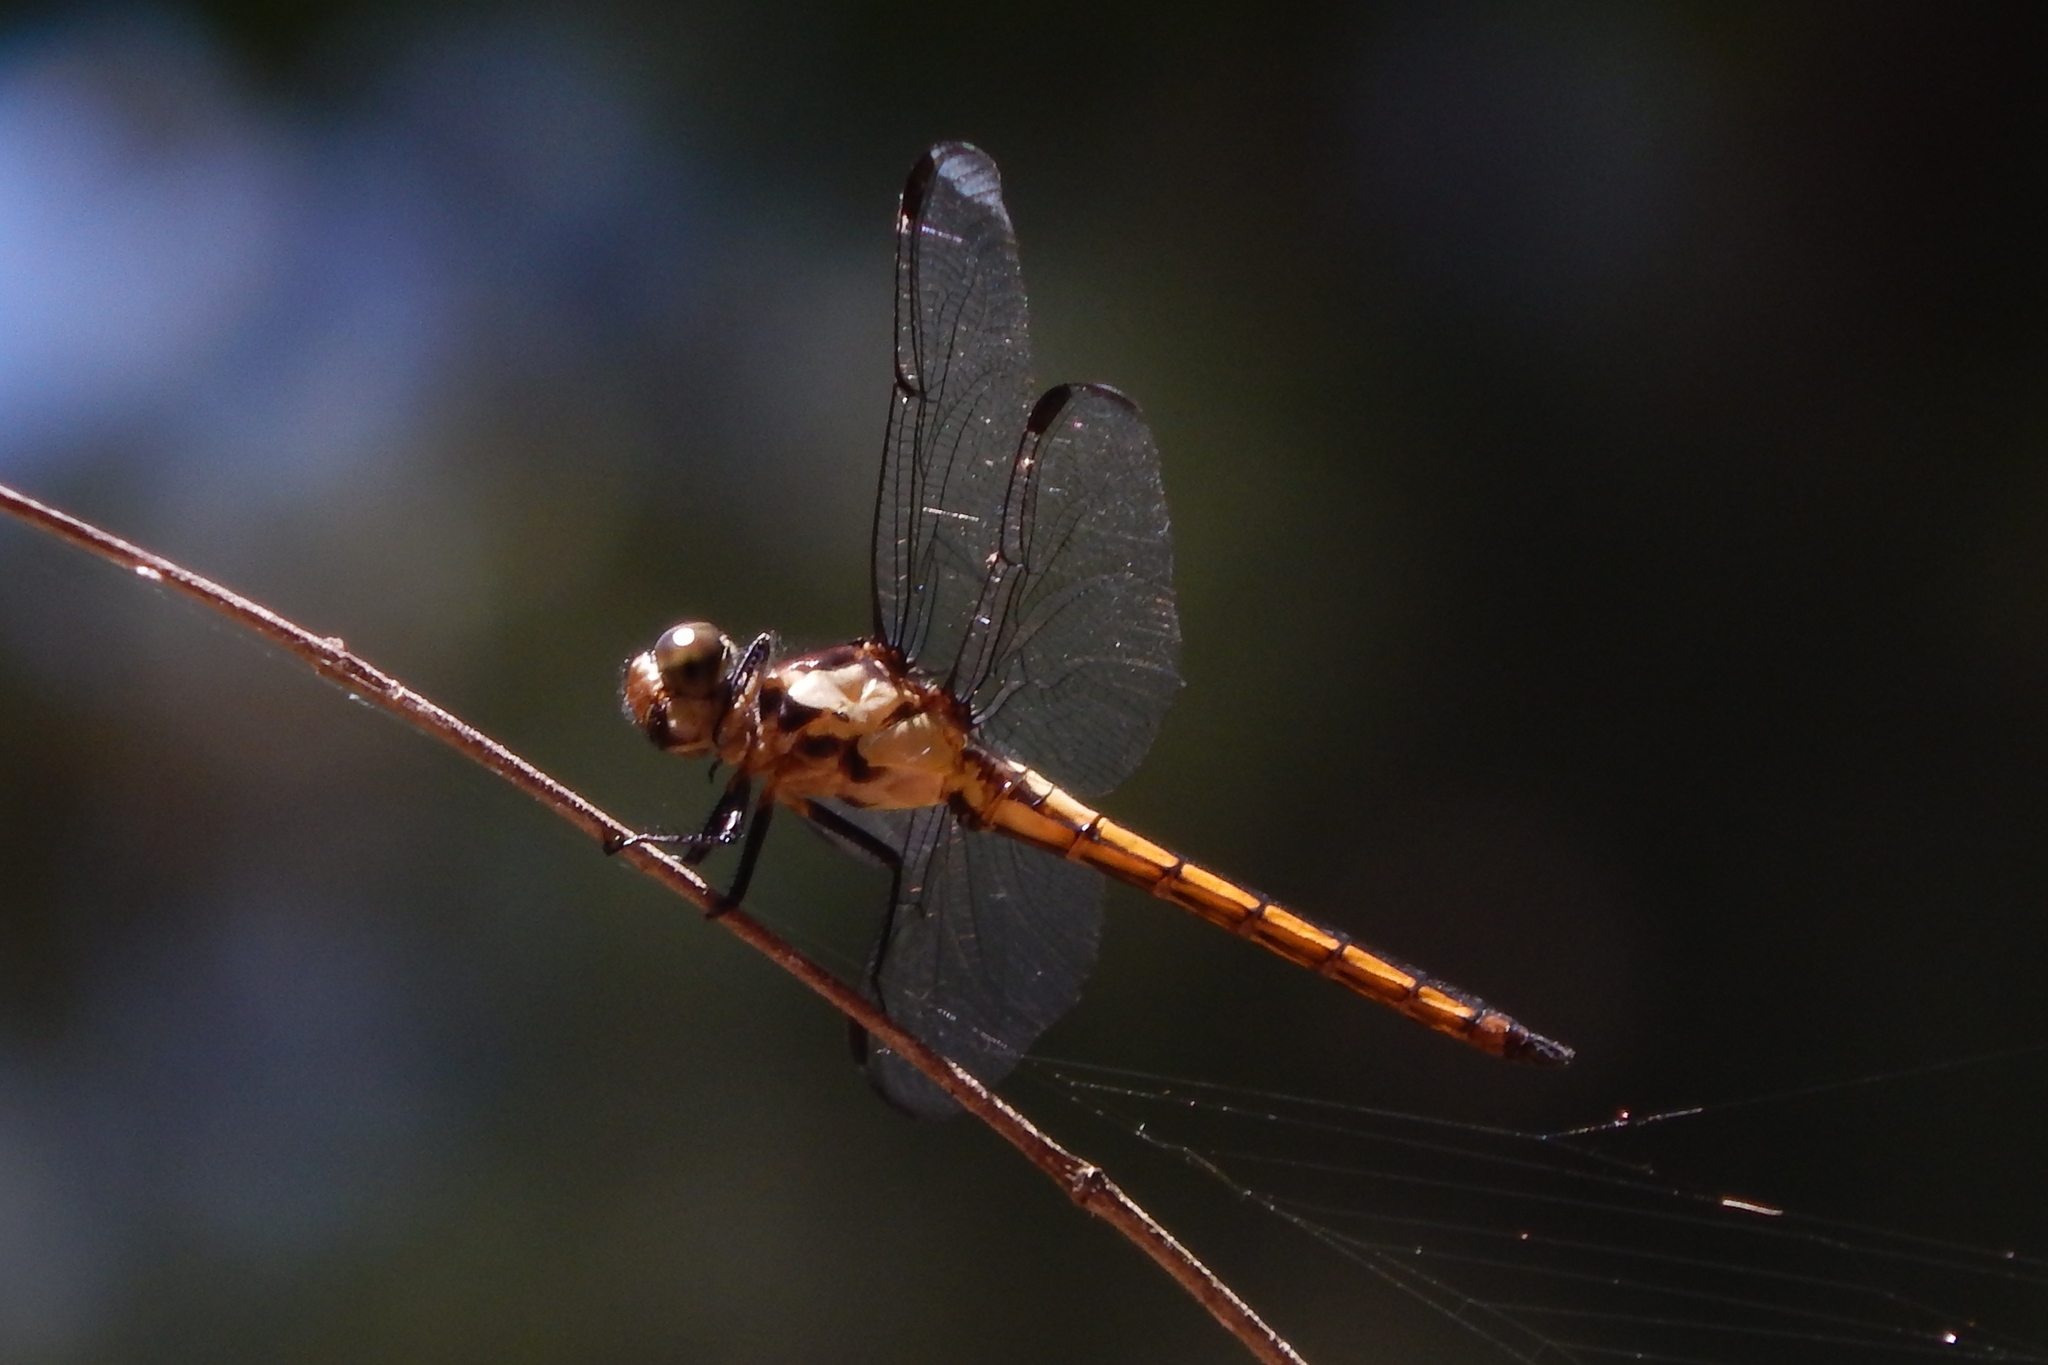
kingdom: Animalia
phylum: Arthropoda
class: Insecta
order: Odonata
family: Libellulidae
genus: Libellula
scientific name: Libellula incesta
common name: Slaty skimmer
